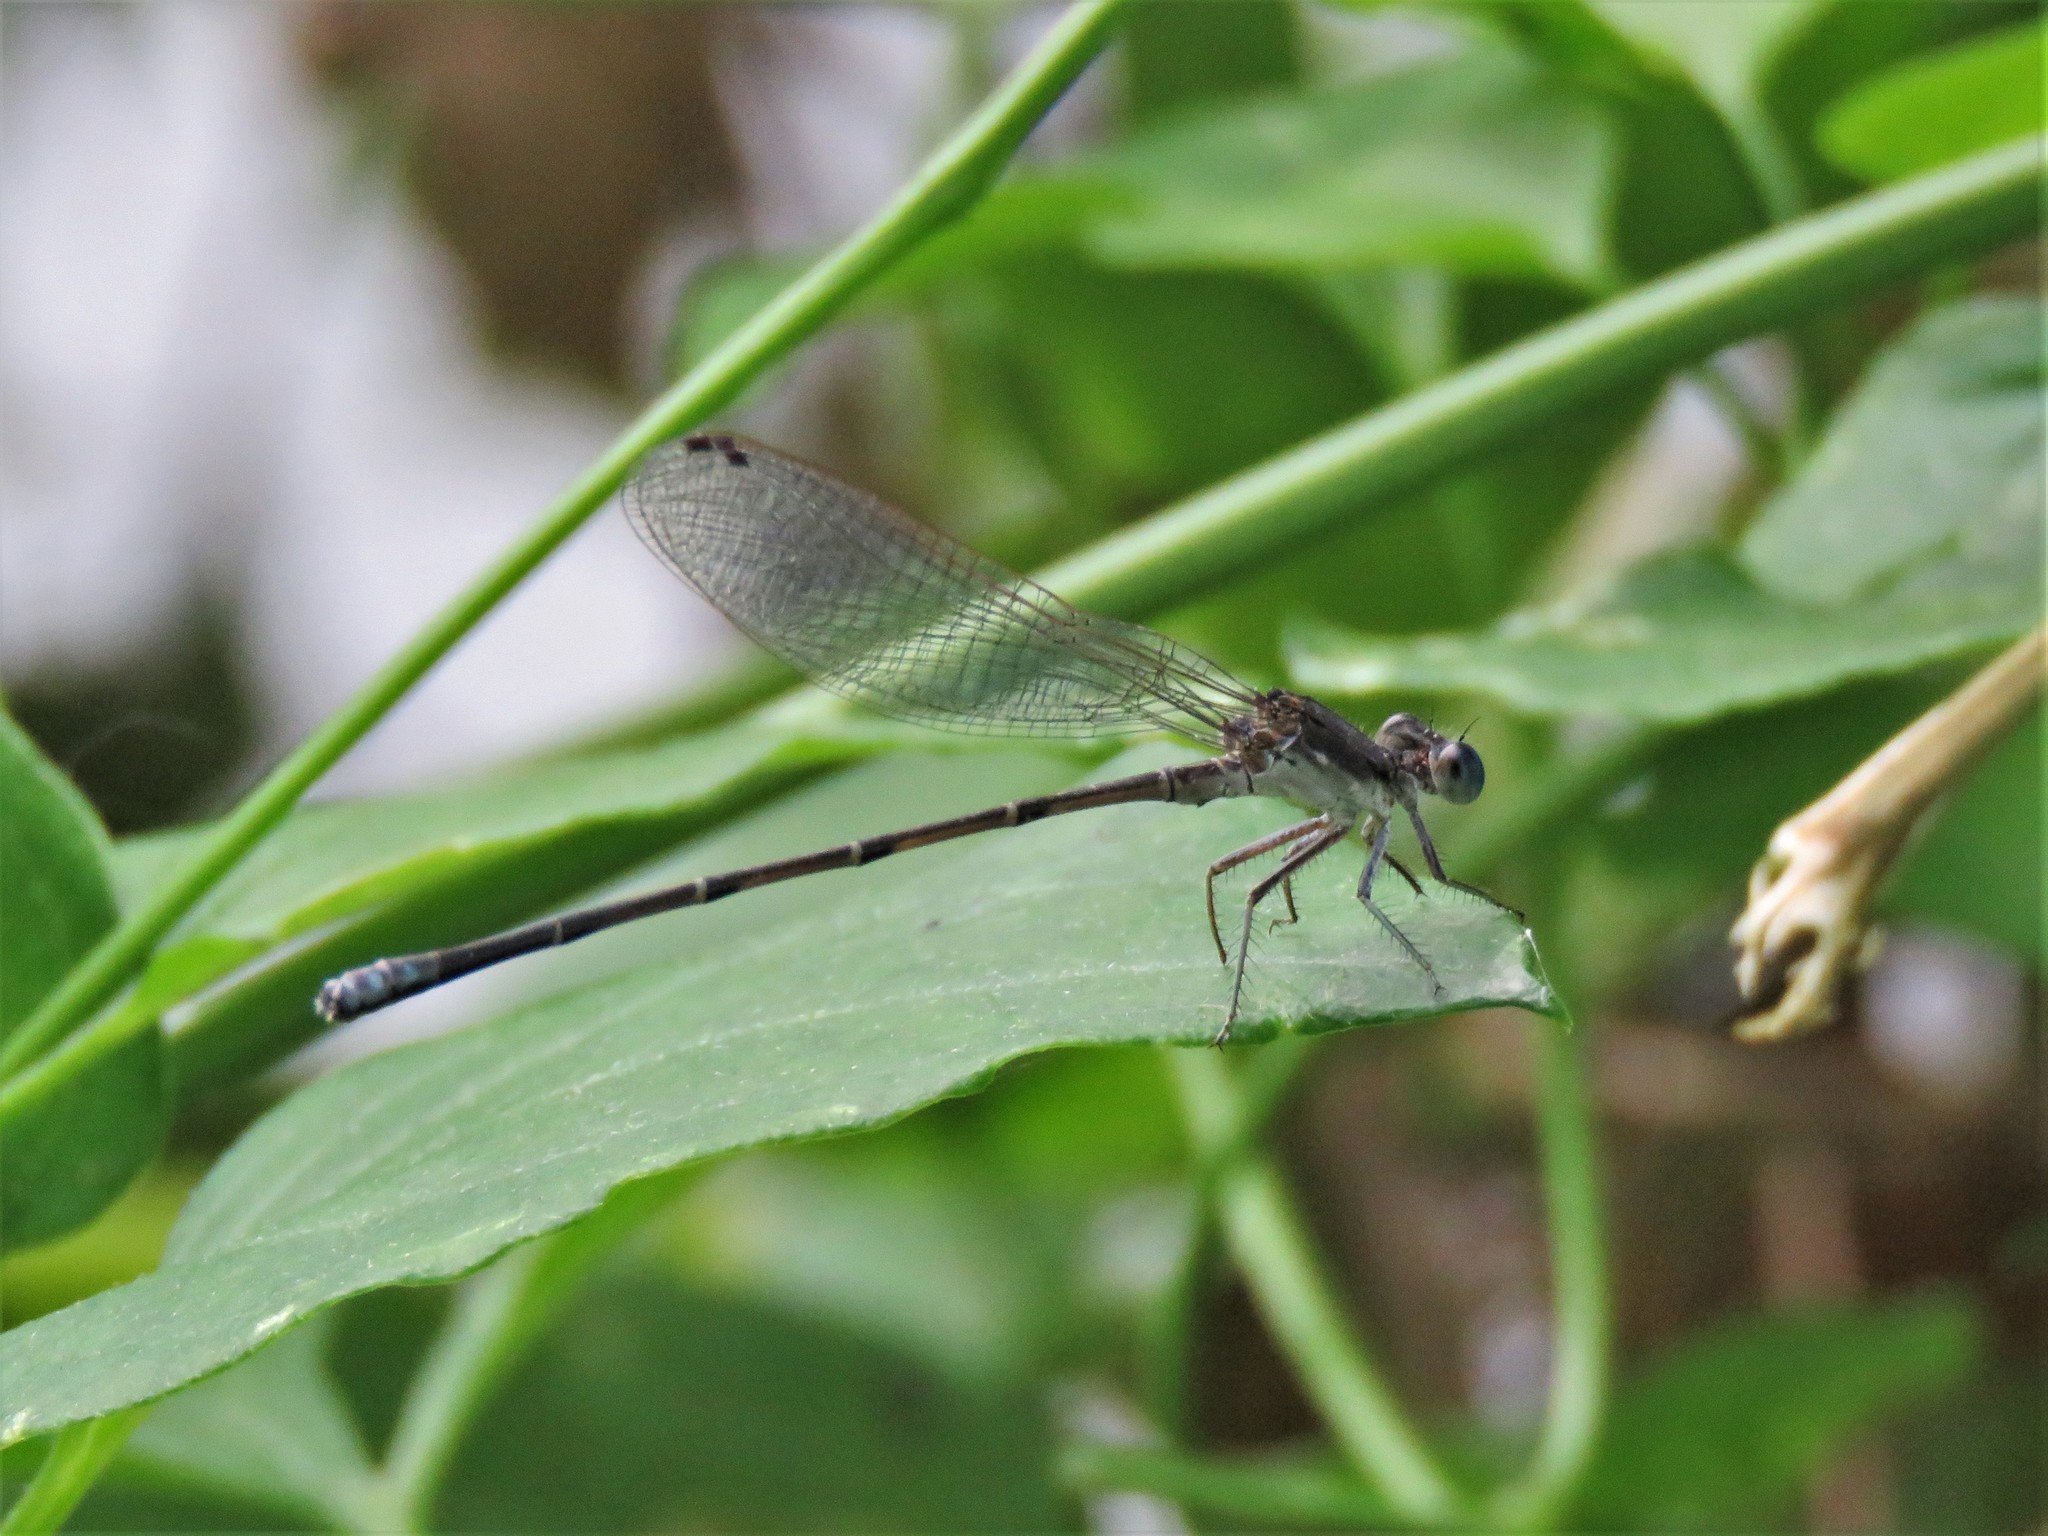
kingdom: Animalia
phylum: Arthropoda
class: Insecta
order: Odonata
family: Coenagrionidae
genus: Argia
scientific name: Argia apicalis
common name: Blue-fronted dancer
